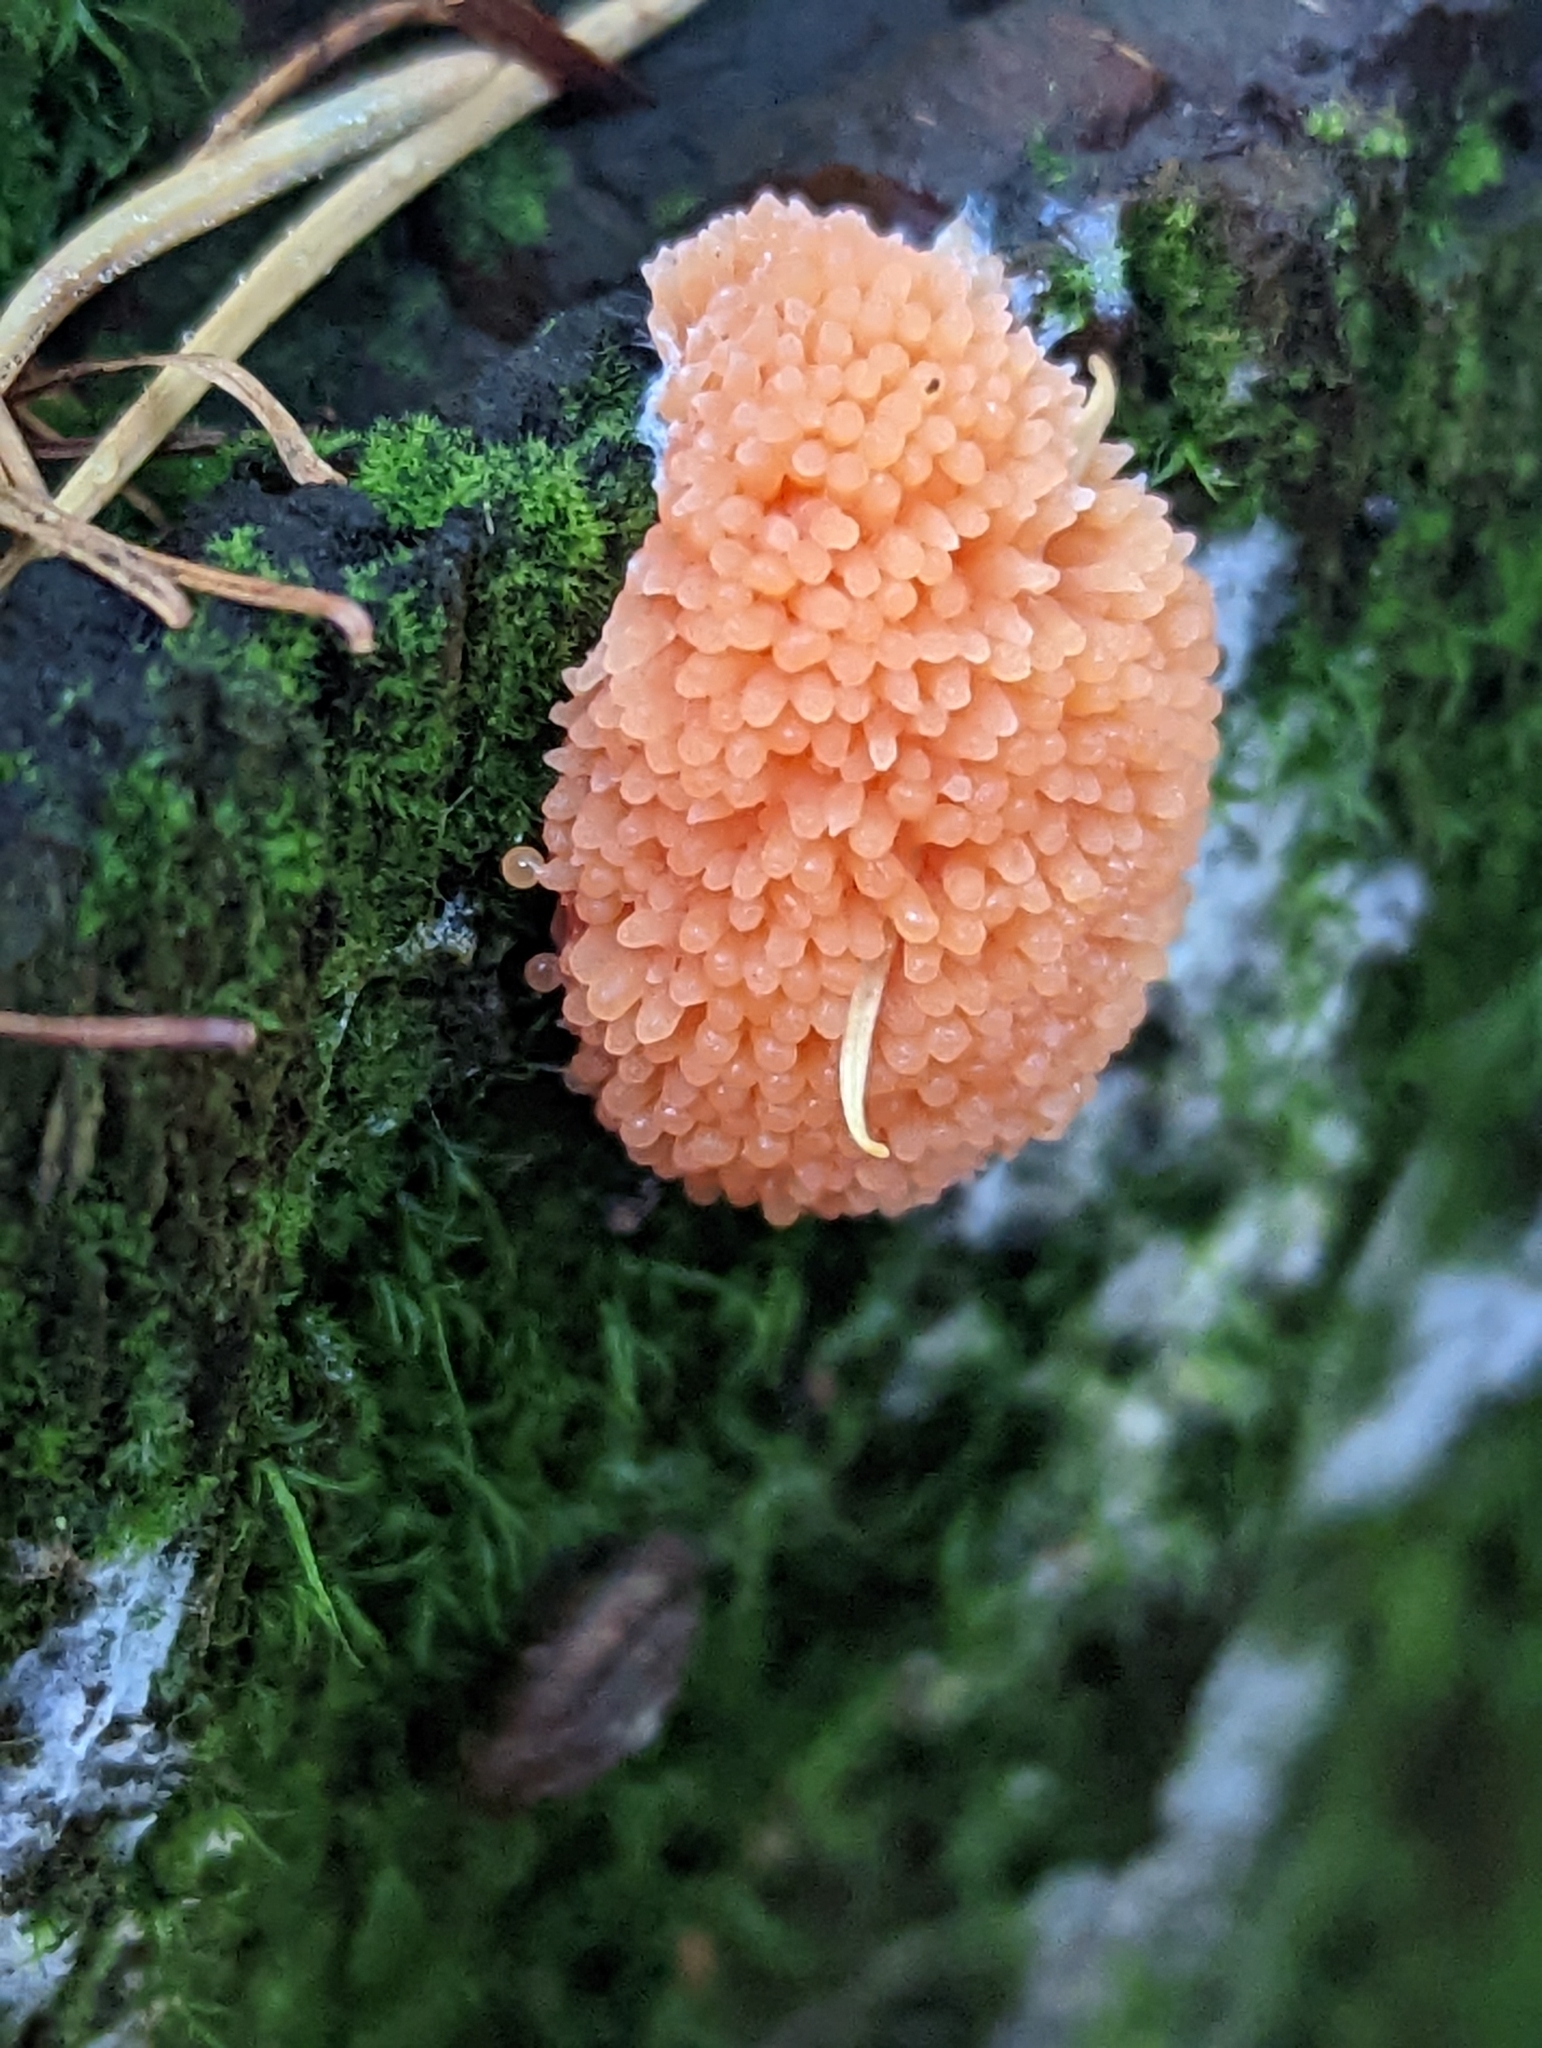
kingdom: Protozoa
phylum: Mycetozoa
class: Myxomycetes
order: Cribrariales
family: Tubiferaceae
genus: Tubifera
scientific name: Tubifera ferruginosa
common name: Red raspberry slime mold
